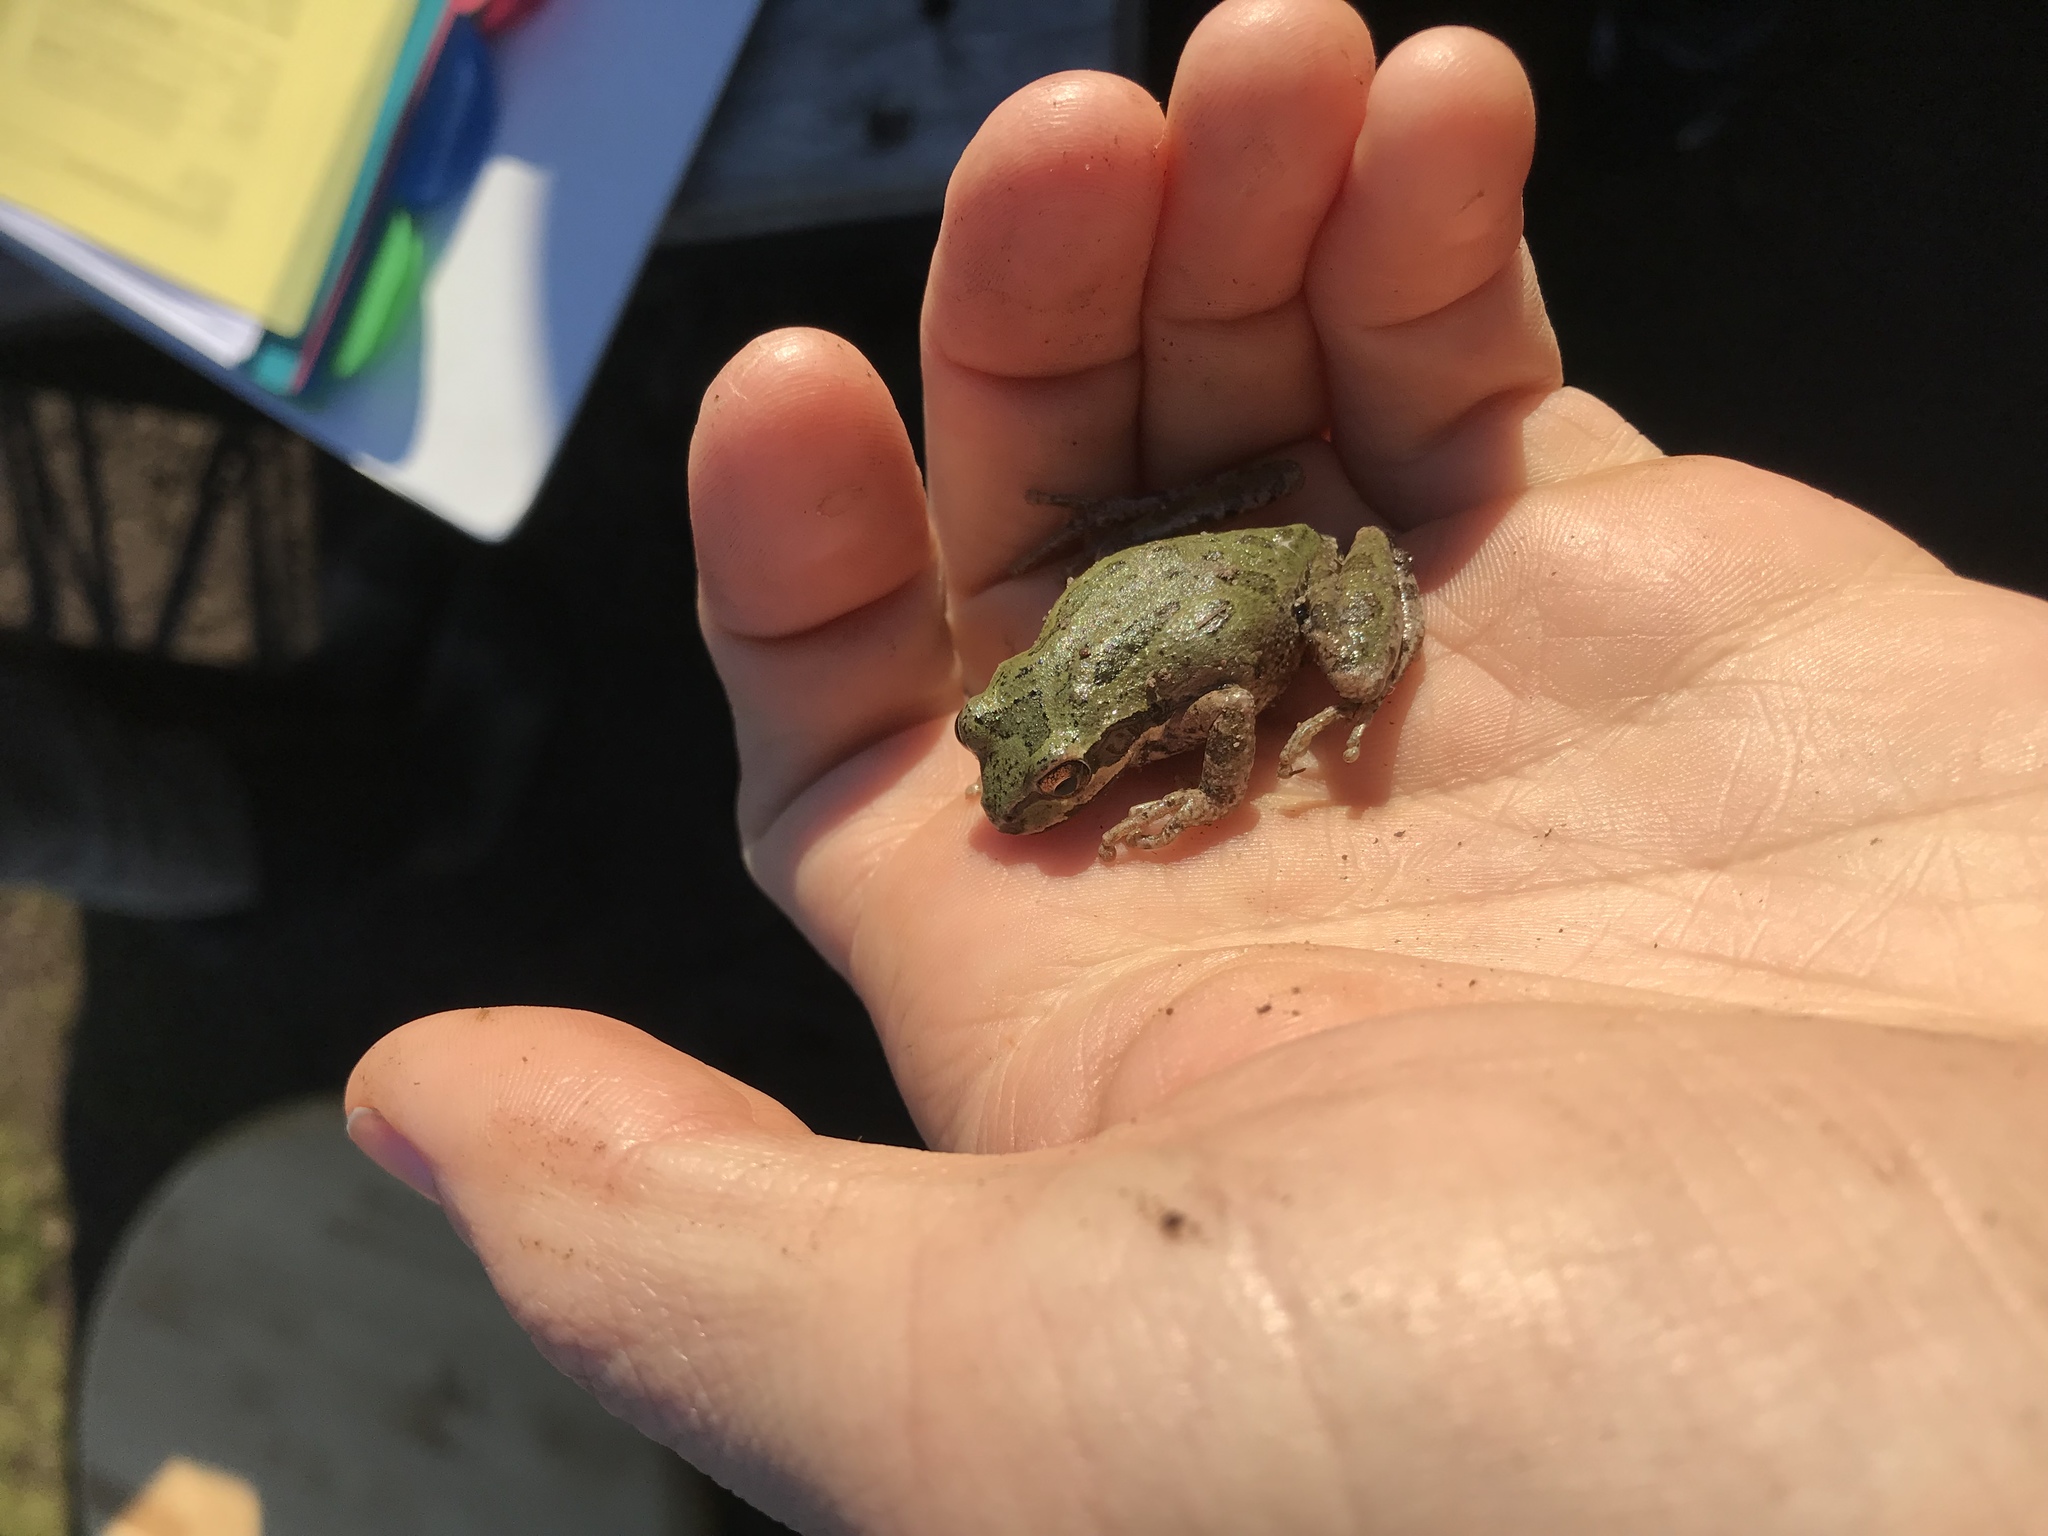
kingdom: Animalia
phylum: Chordata
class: Amphibia
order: Anura
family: Hylidae
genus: Pseudacris
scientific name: Pseudacris regilla
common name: Pacific chorus frog
